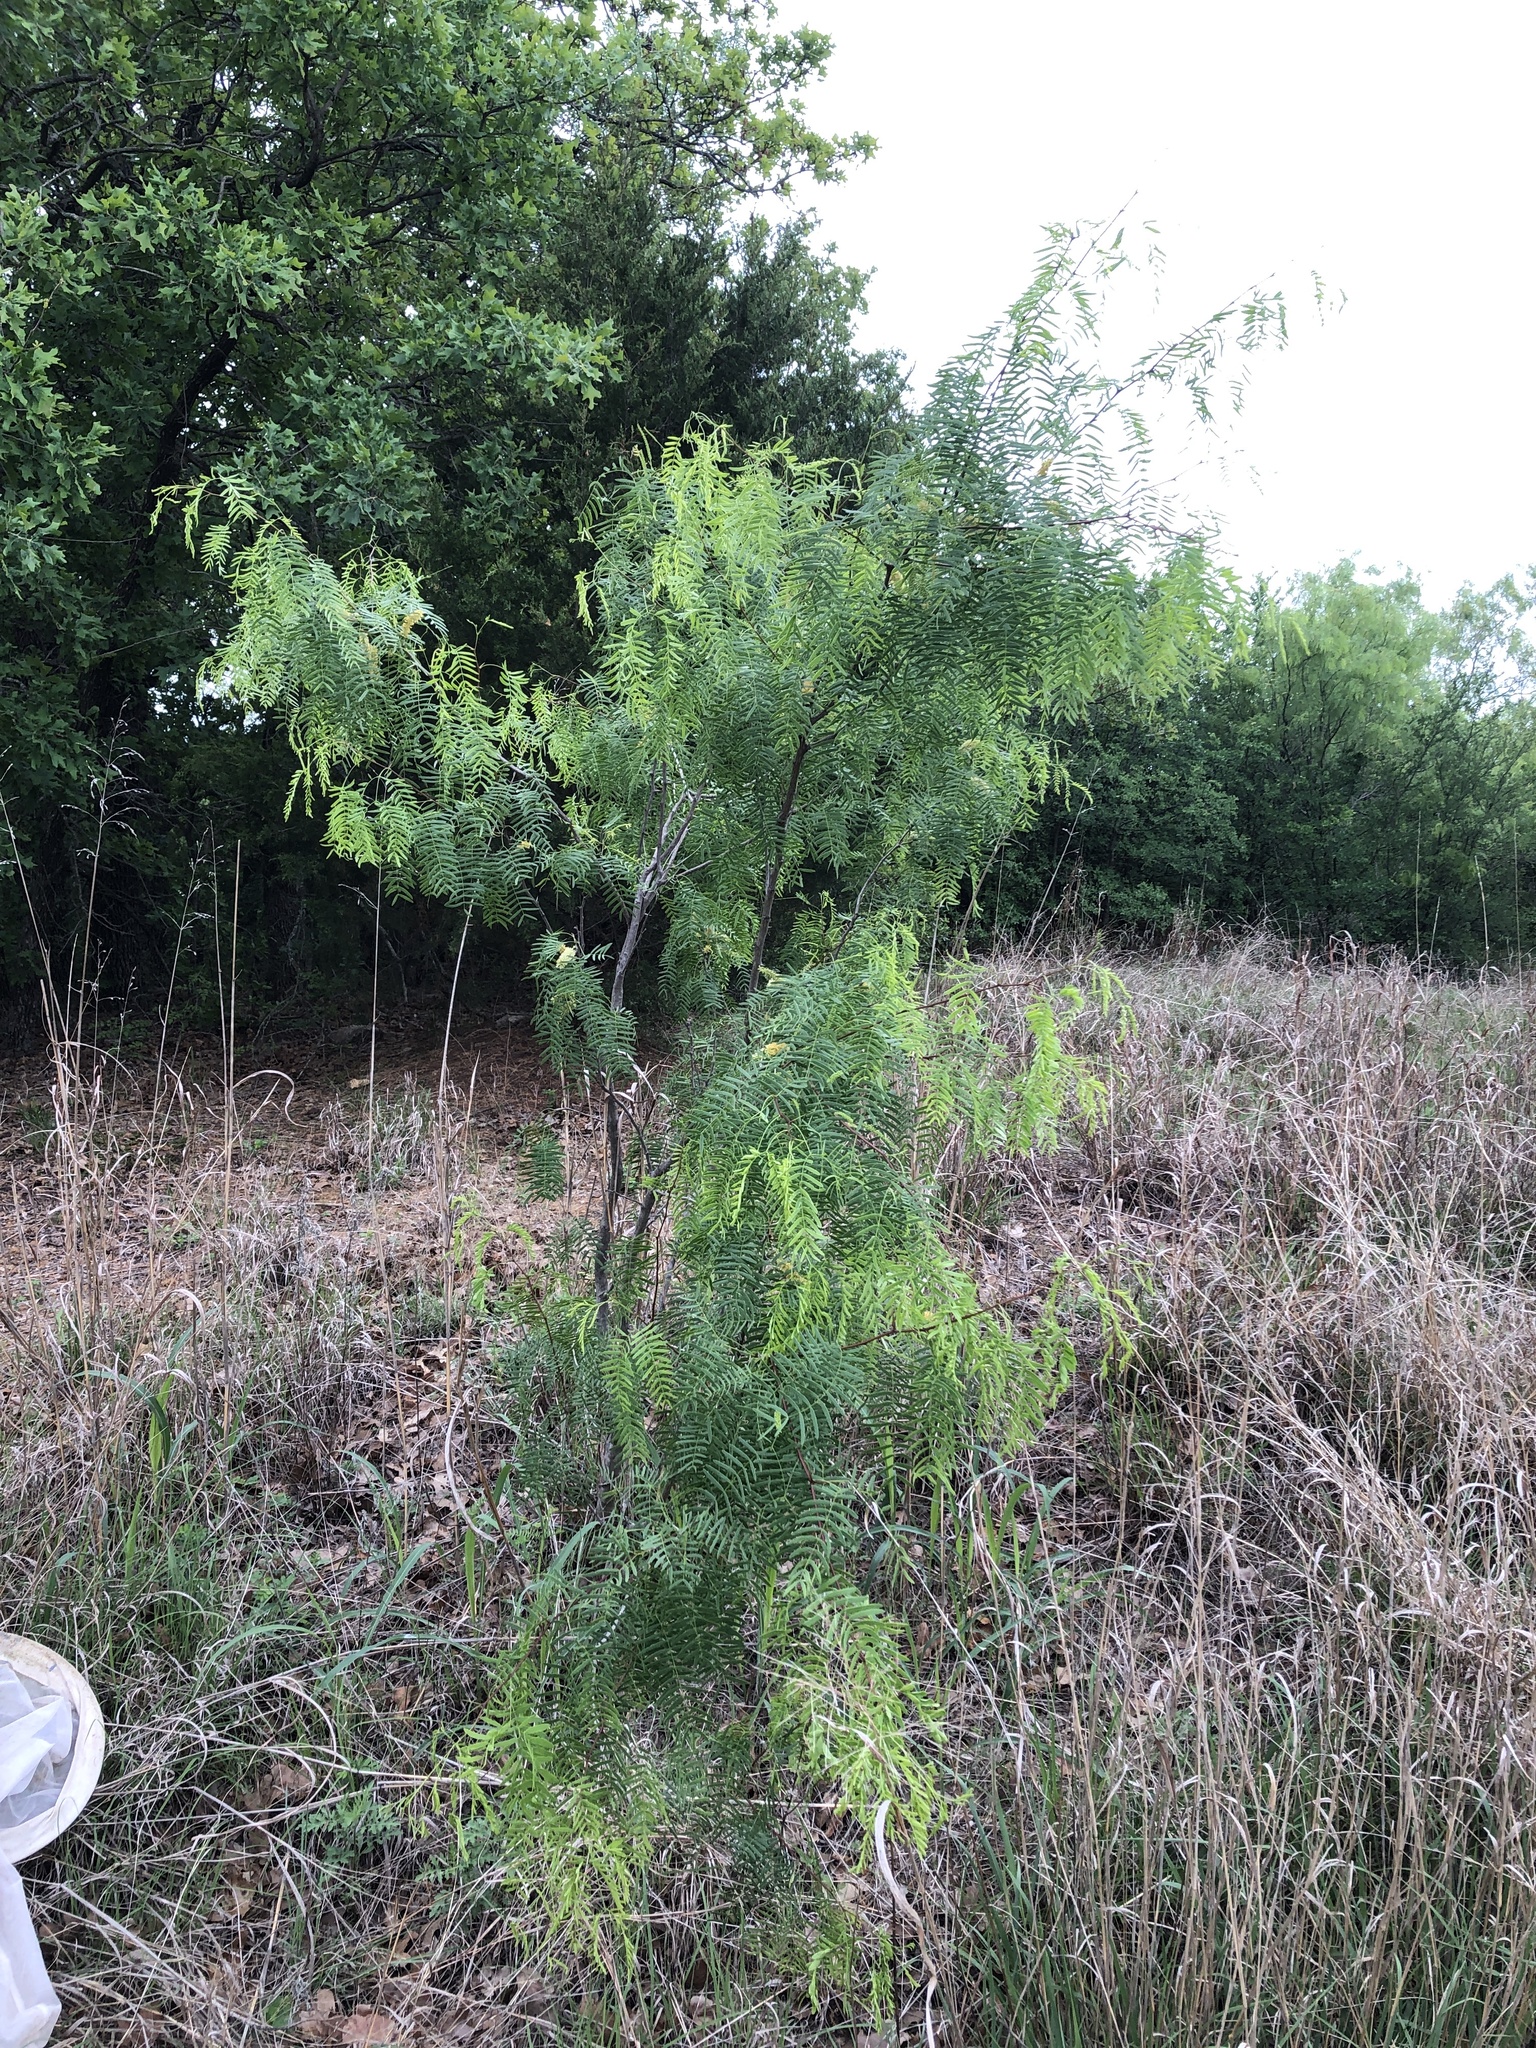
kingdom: Plantae
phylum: Tracheophyta
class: Magnoliopsida
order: Fabales
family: Fabaceae
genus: Prosopis
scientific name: Prosopis glandulosa
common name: Honey mesquite
